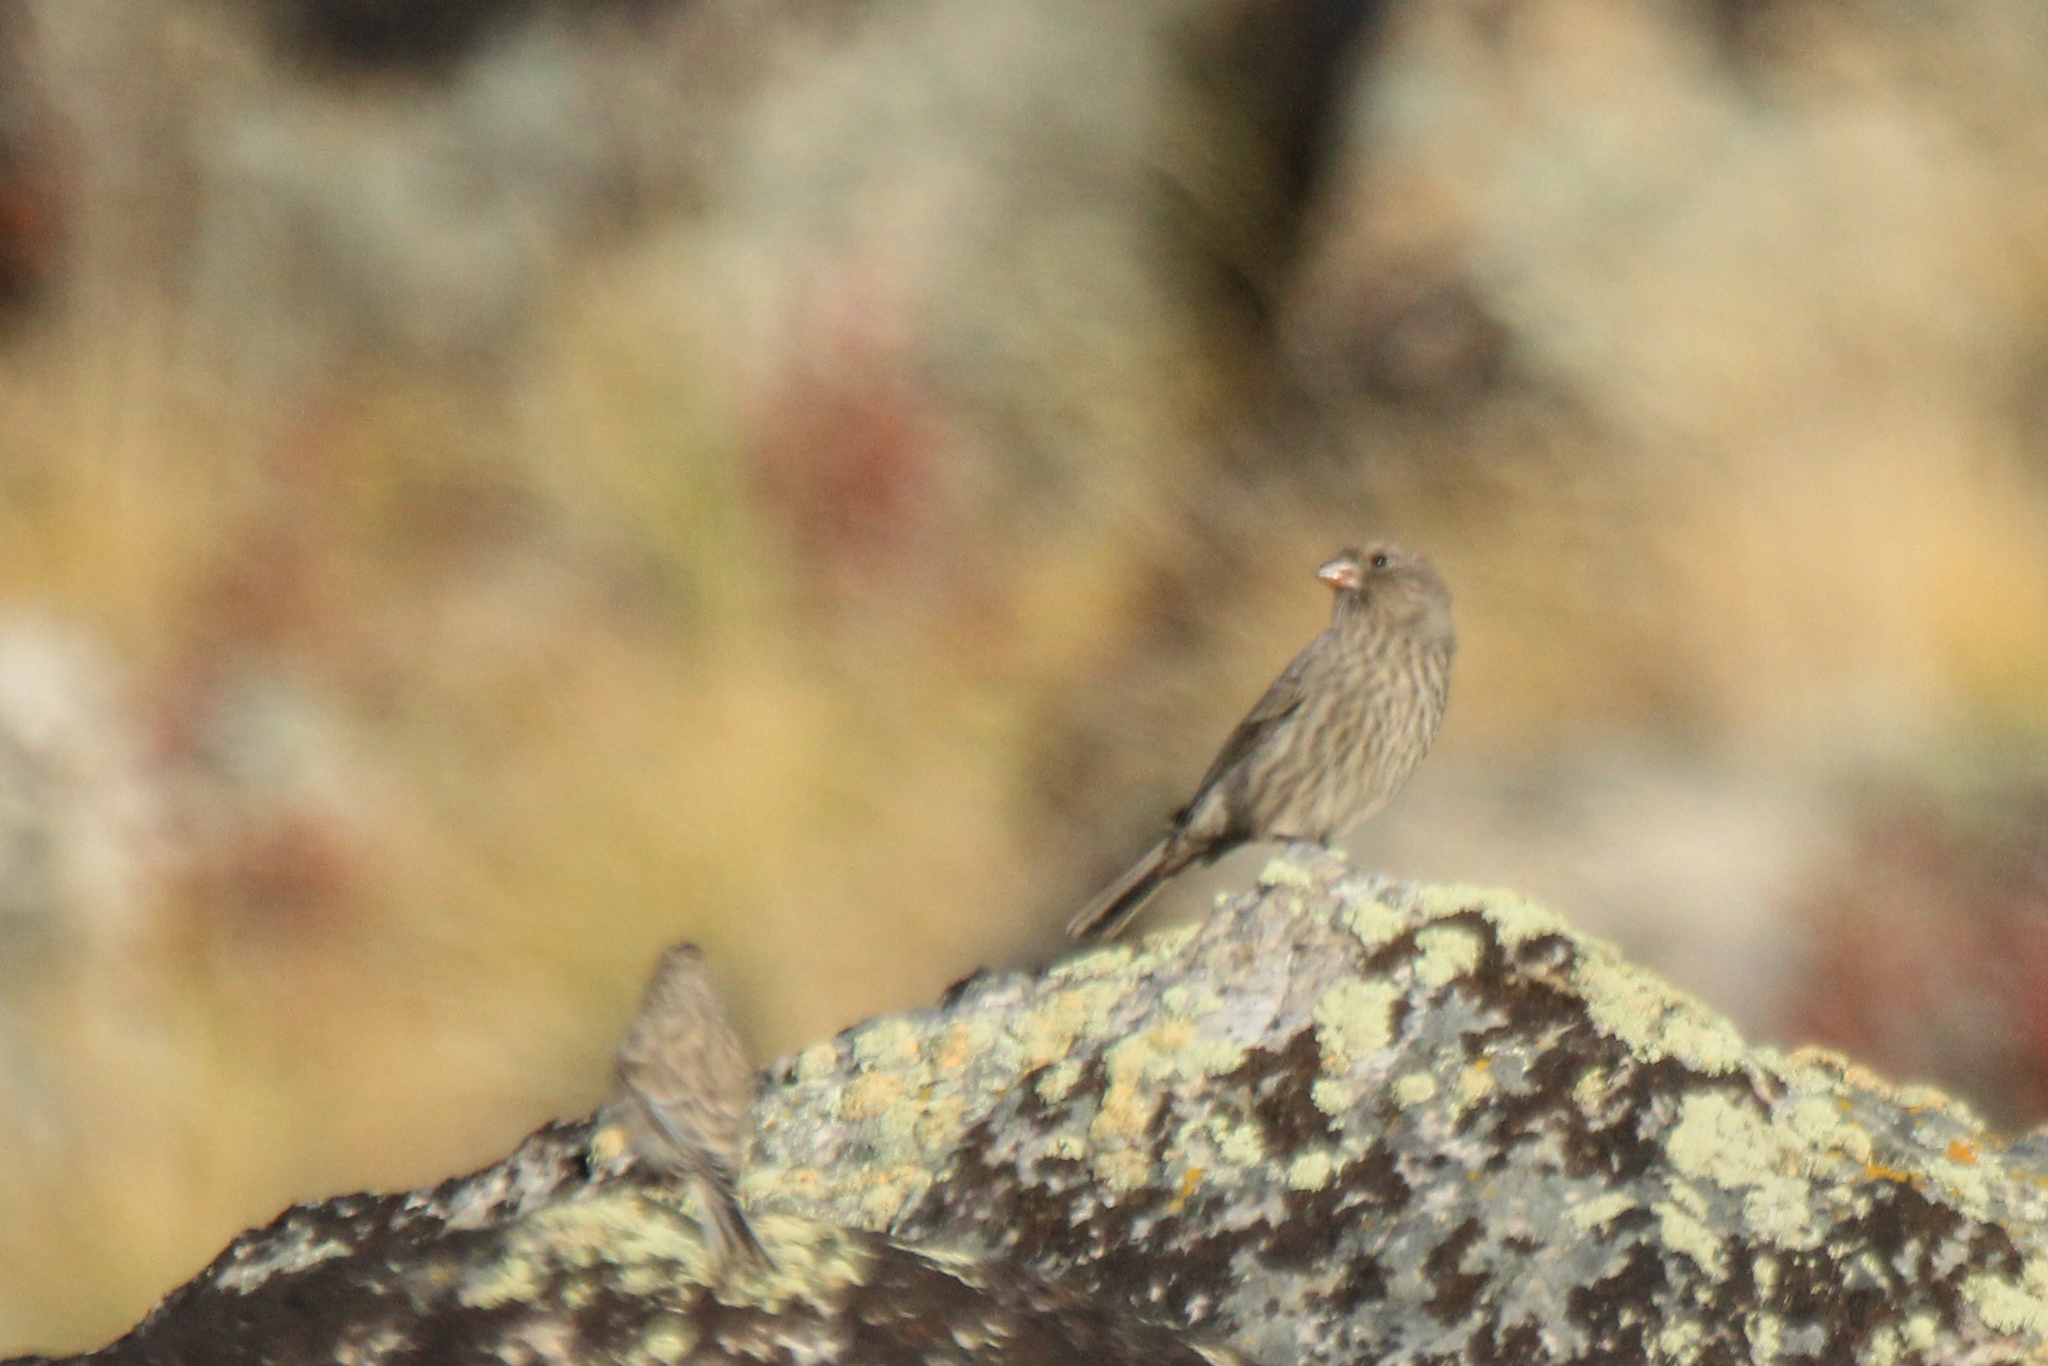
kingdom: Animalia
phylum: Chordata
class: Aves
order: Passeriformes
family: Fringillidae
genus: Carpodacus
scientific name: Carpodacus rubicilla
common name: Great rosefinch
